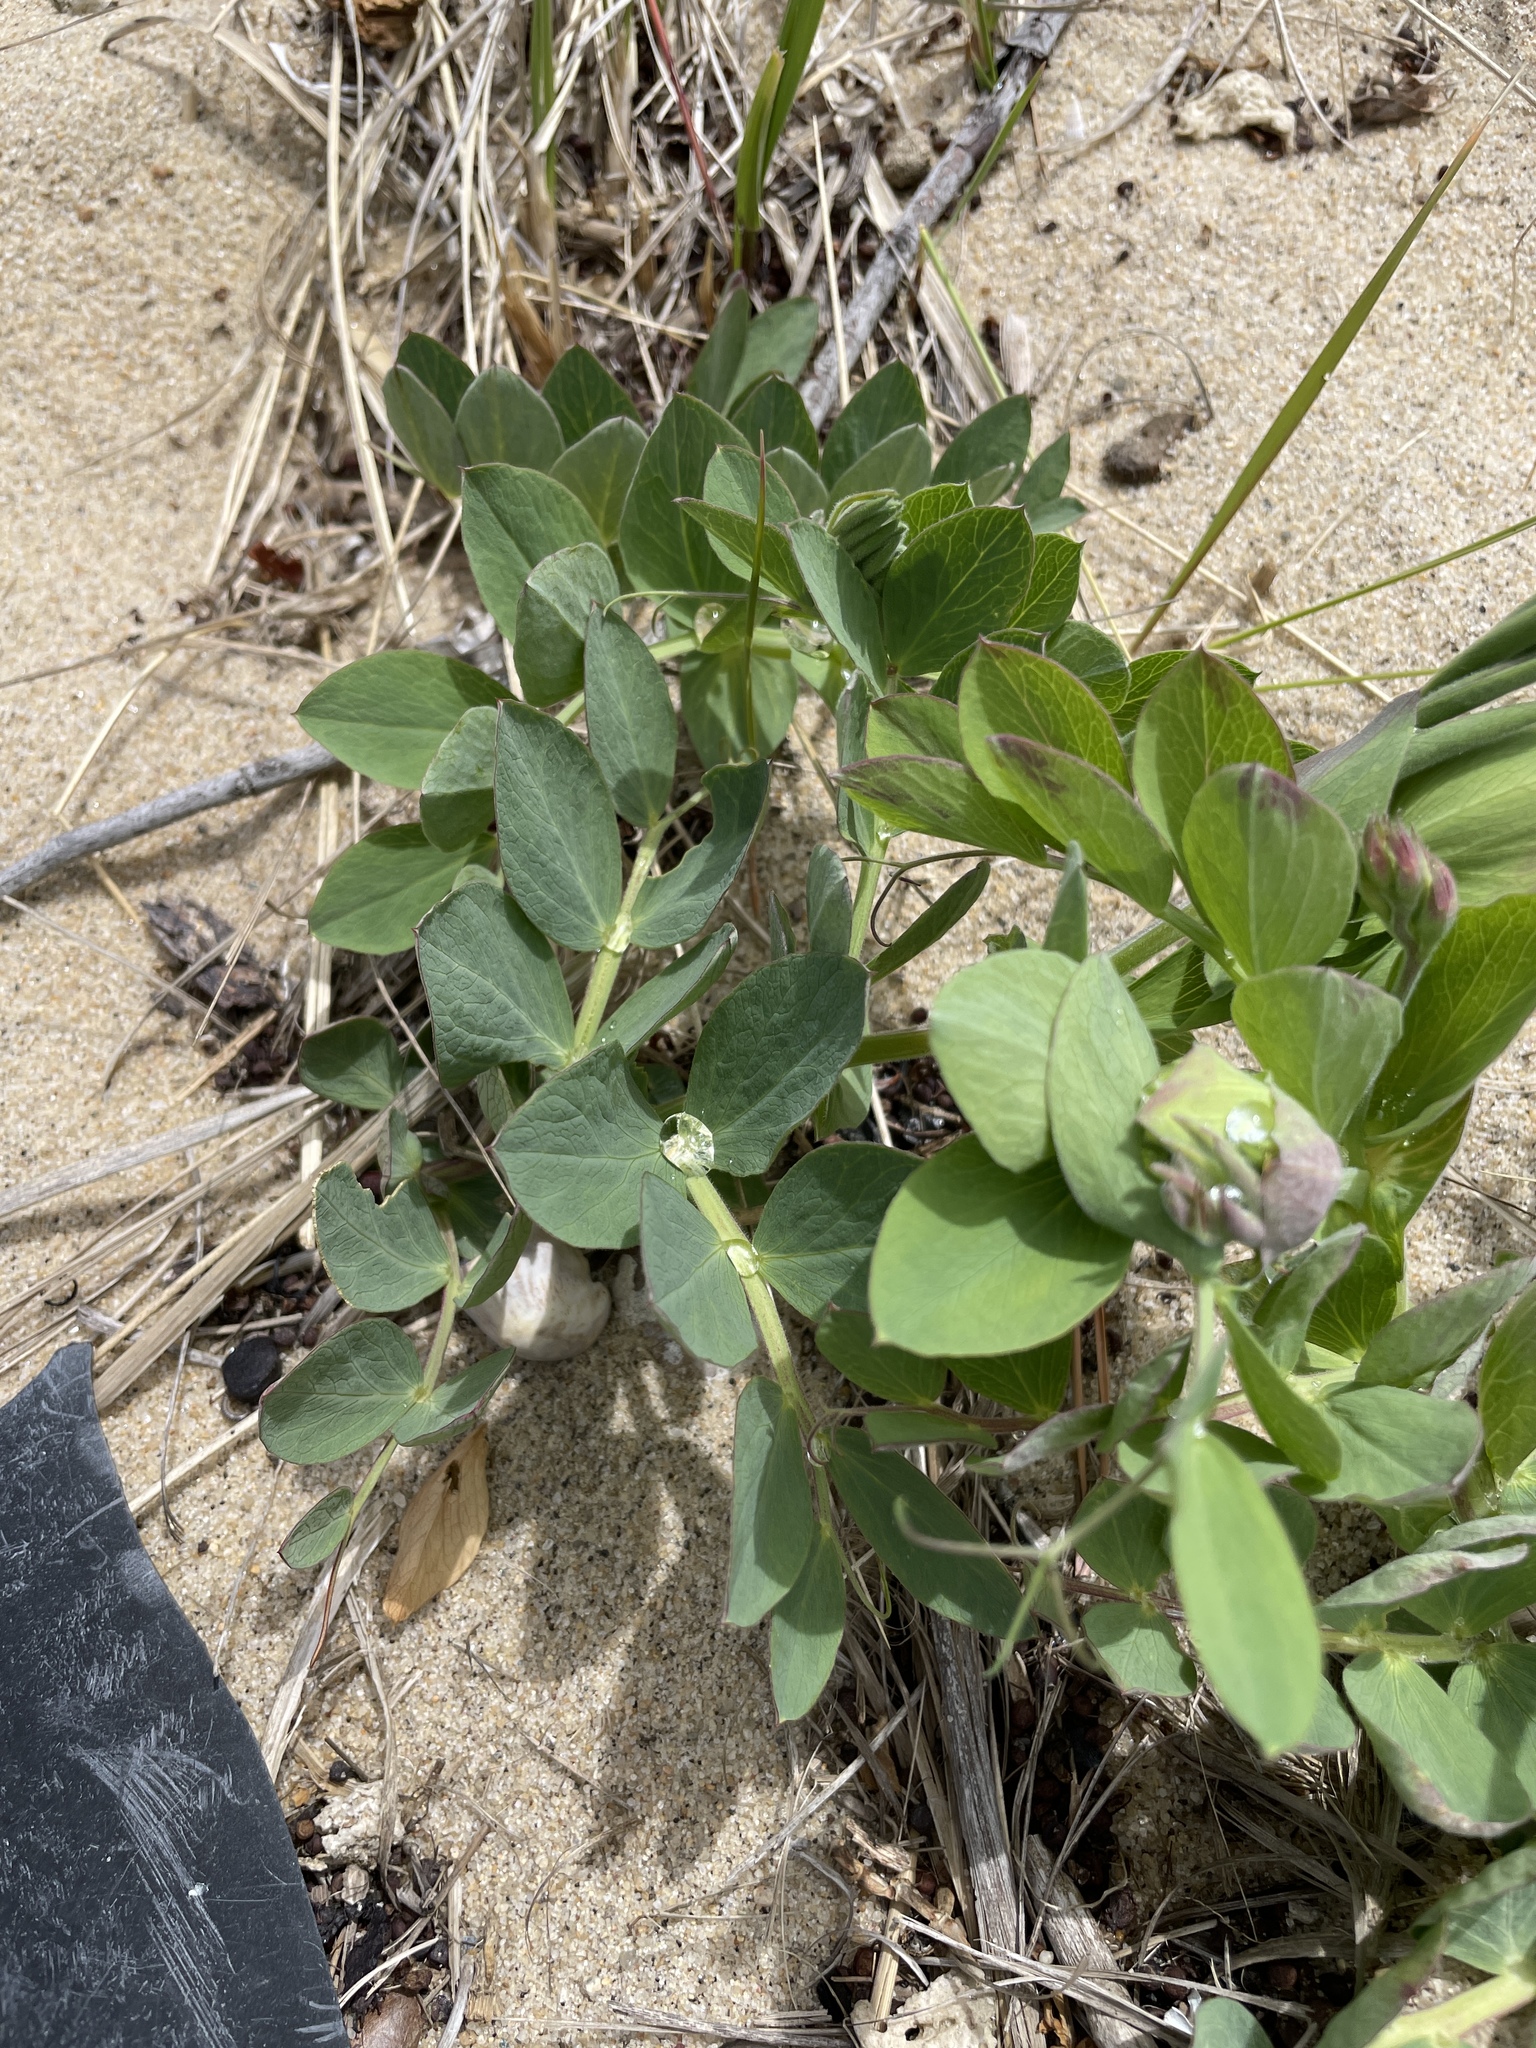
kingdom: Plantae
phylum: Tracheophyta
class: Magnoliopsida
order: Fabales
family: Fabaceae
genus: Lathyrus
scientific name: Lathyrus japonicus
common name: Sea pea
